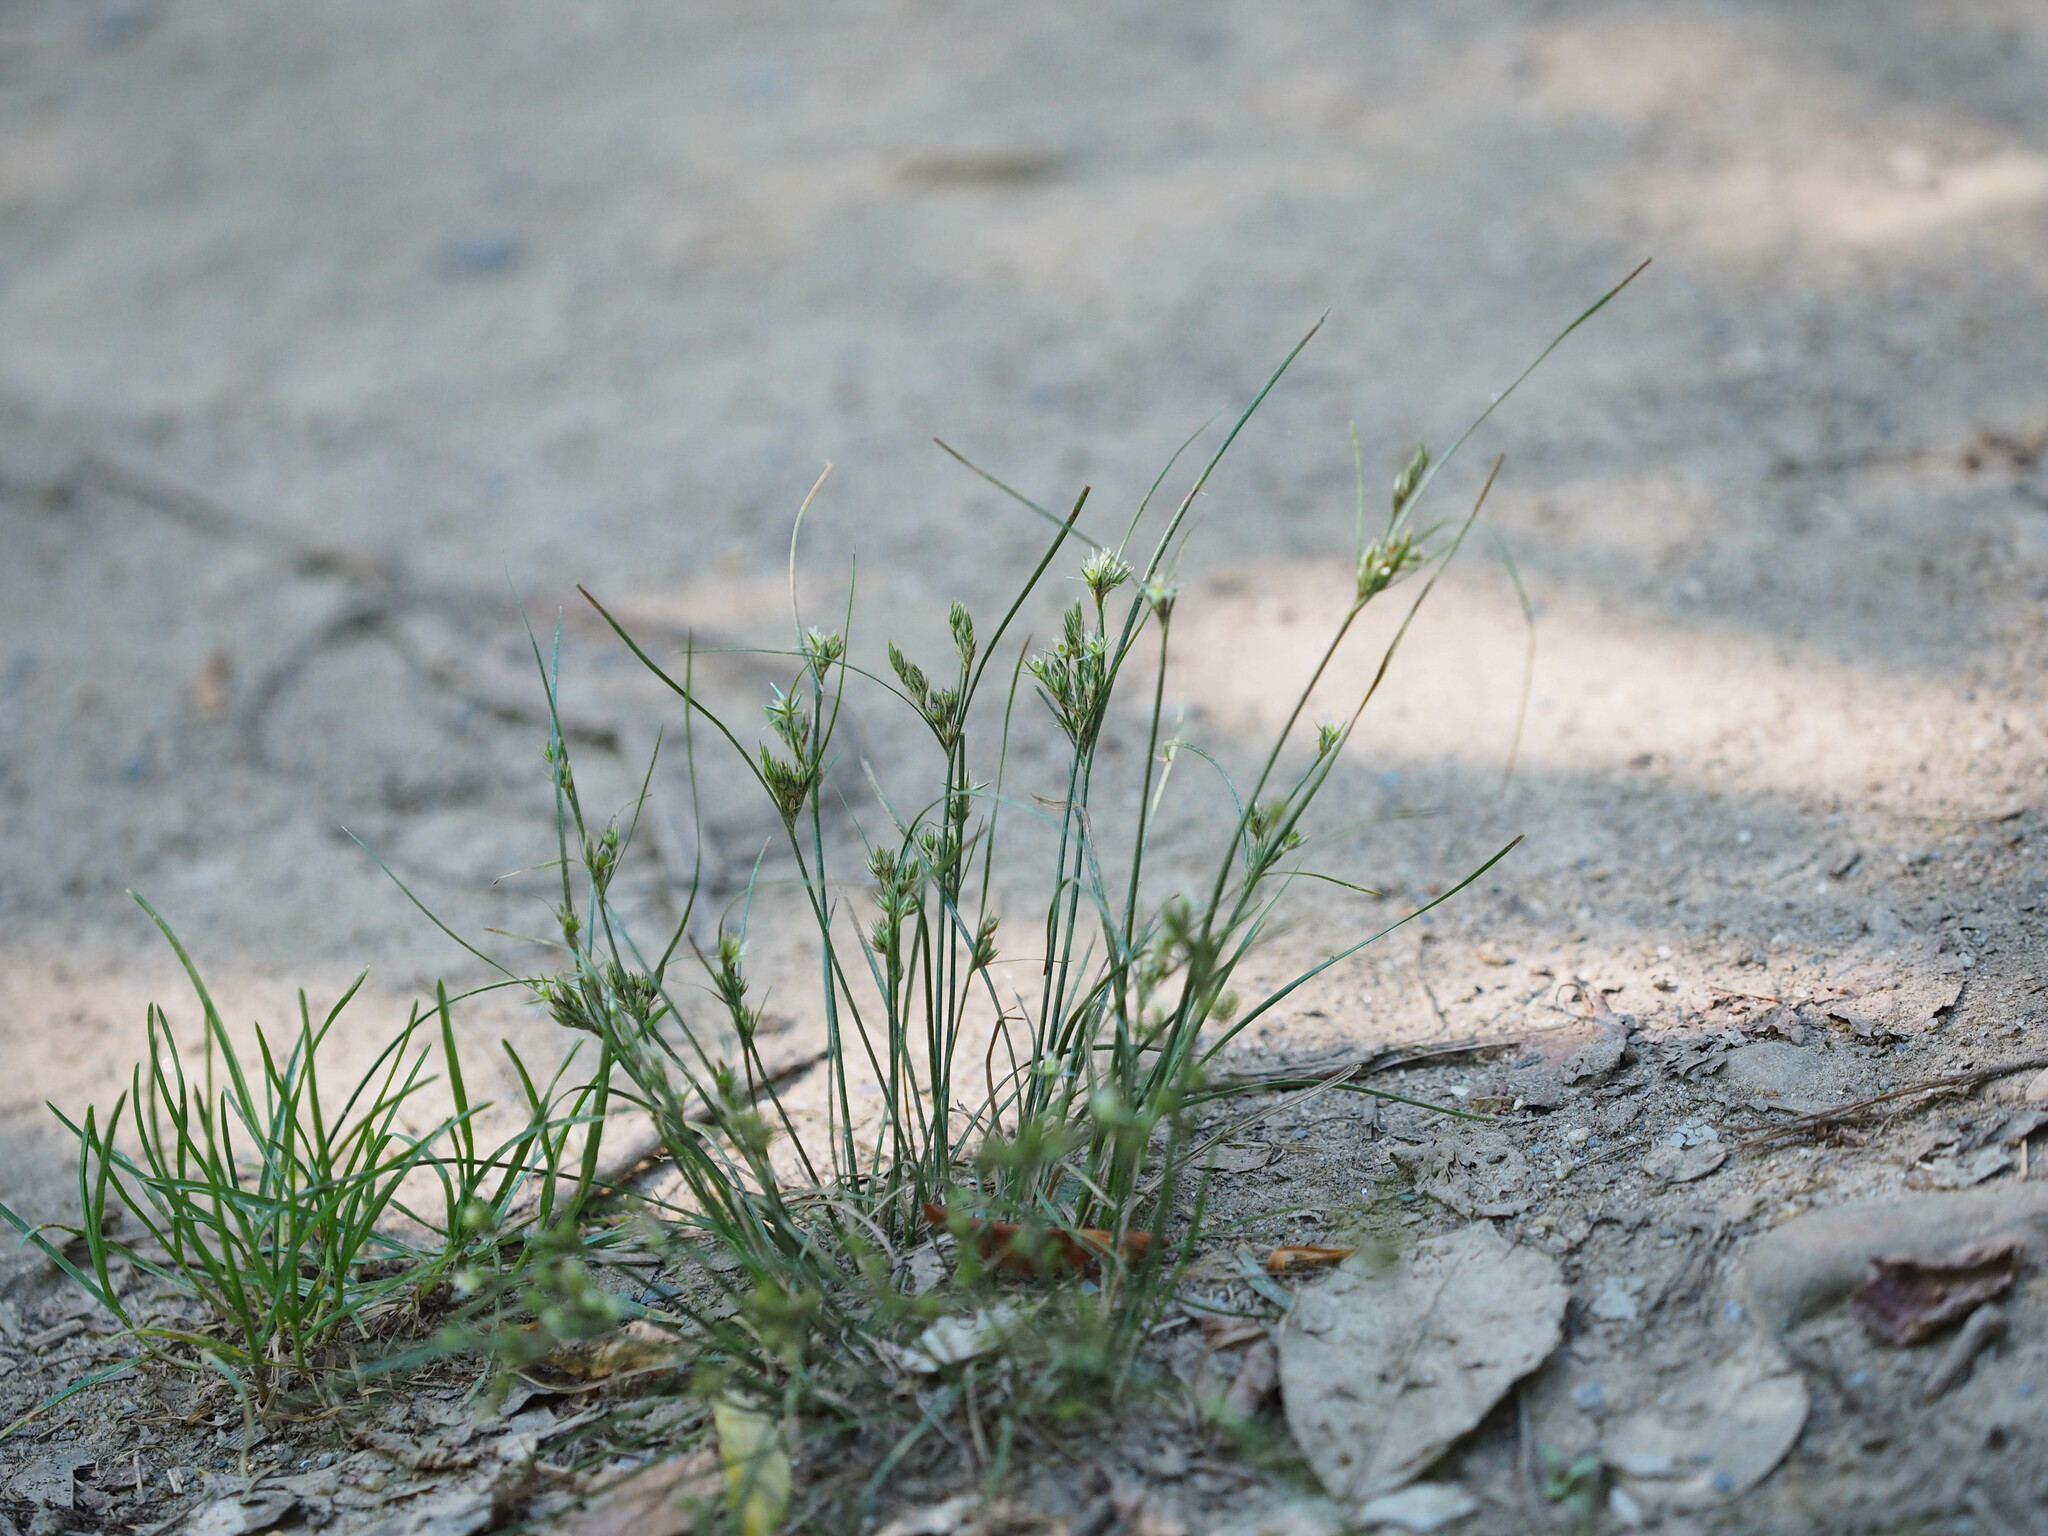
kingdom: Plantae
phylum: Tracheophyta
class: Liliopsida
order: Poales
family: Juncaceae
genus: Juncus
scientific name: Juncus tenuis
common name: Slender rush
